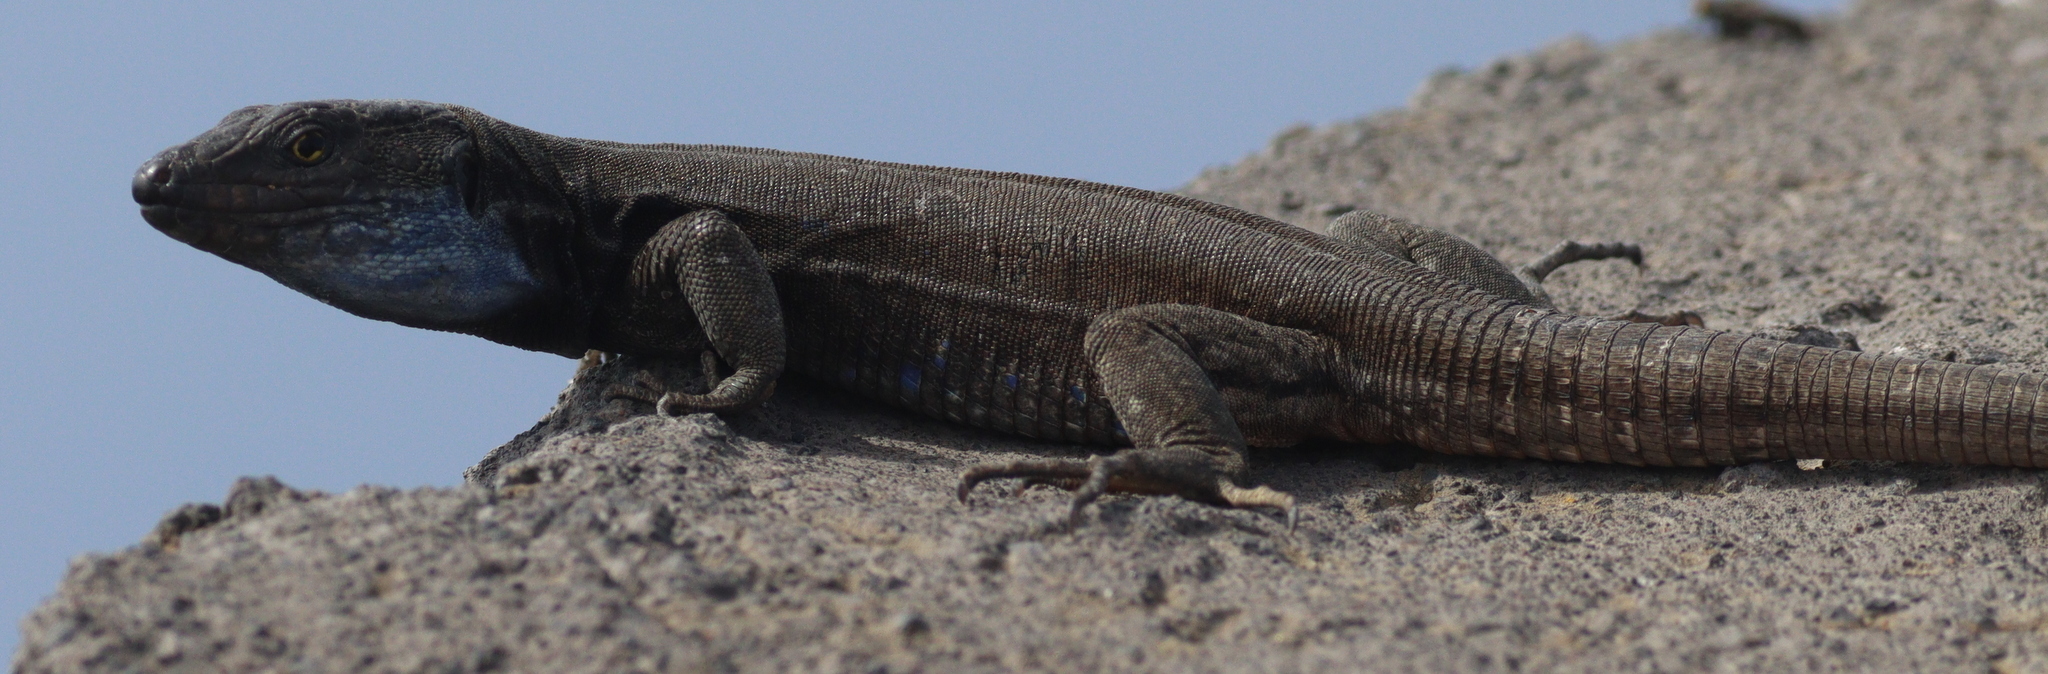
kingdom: Animalia
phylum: Chordata
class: Squamata
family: Lacertidae
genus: Gallotia
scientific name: Gallotia galloti
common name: Gallot's lizard
